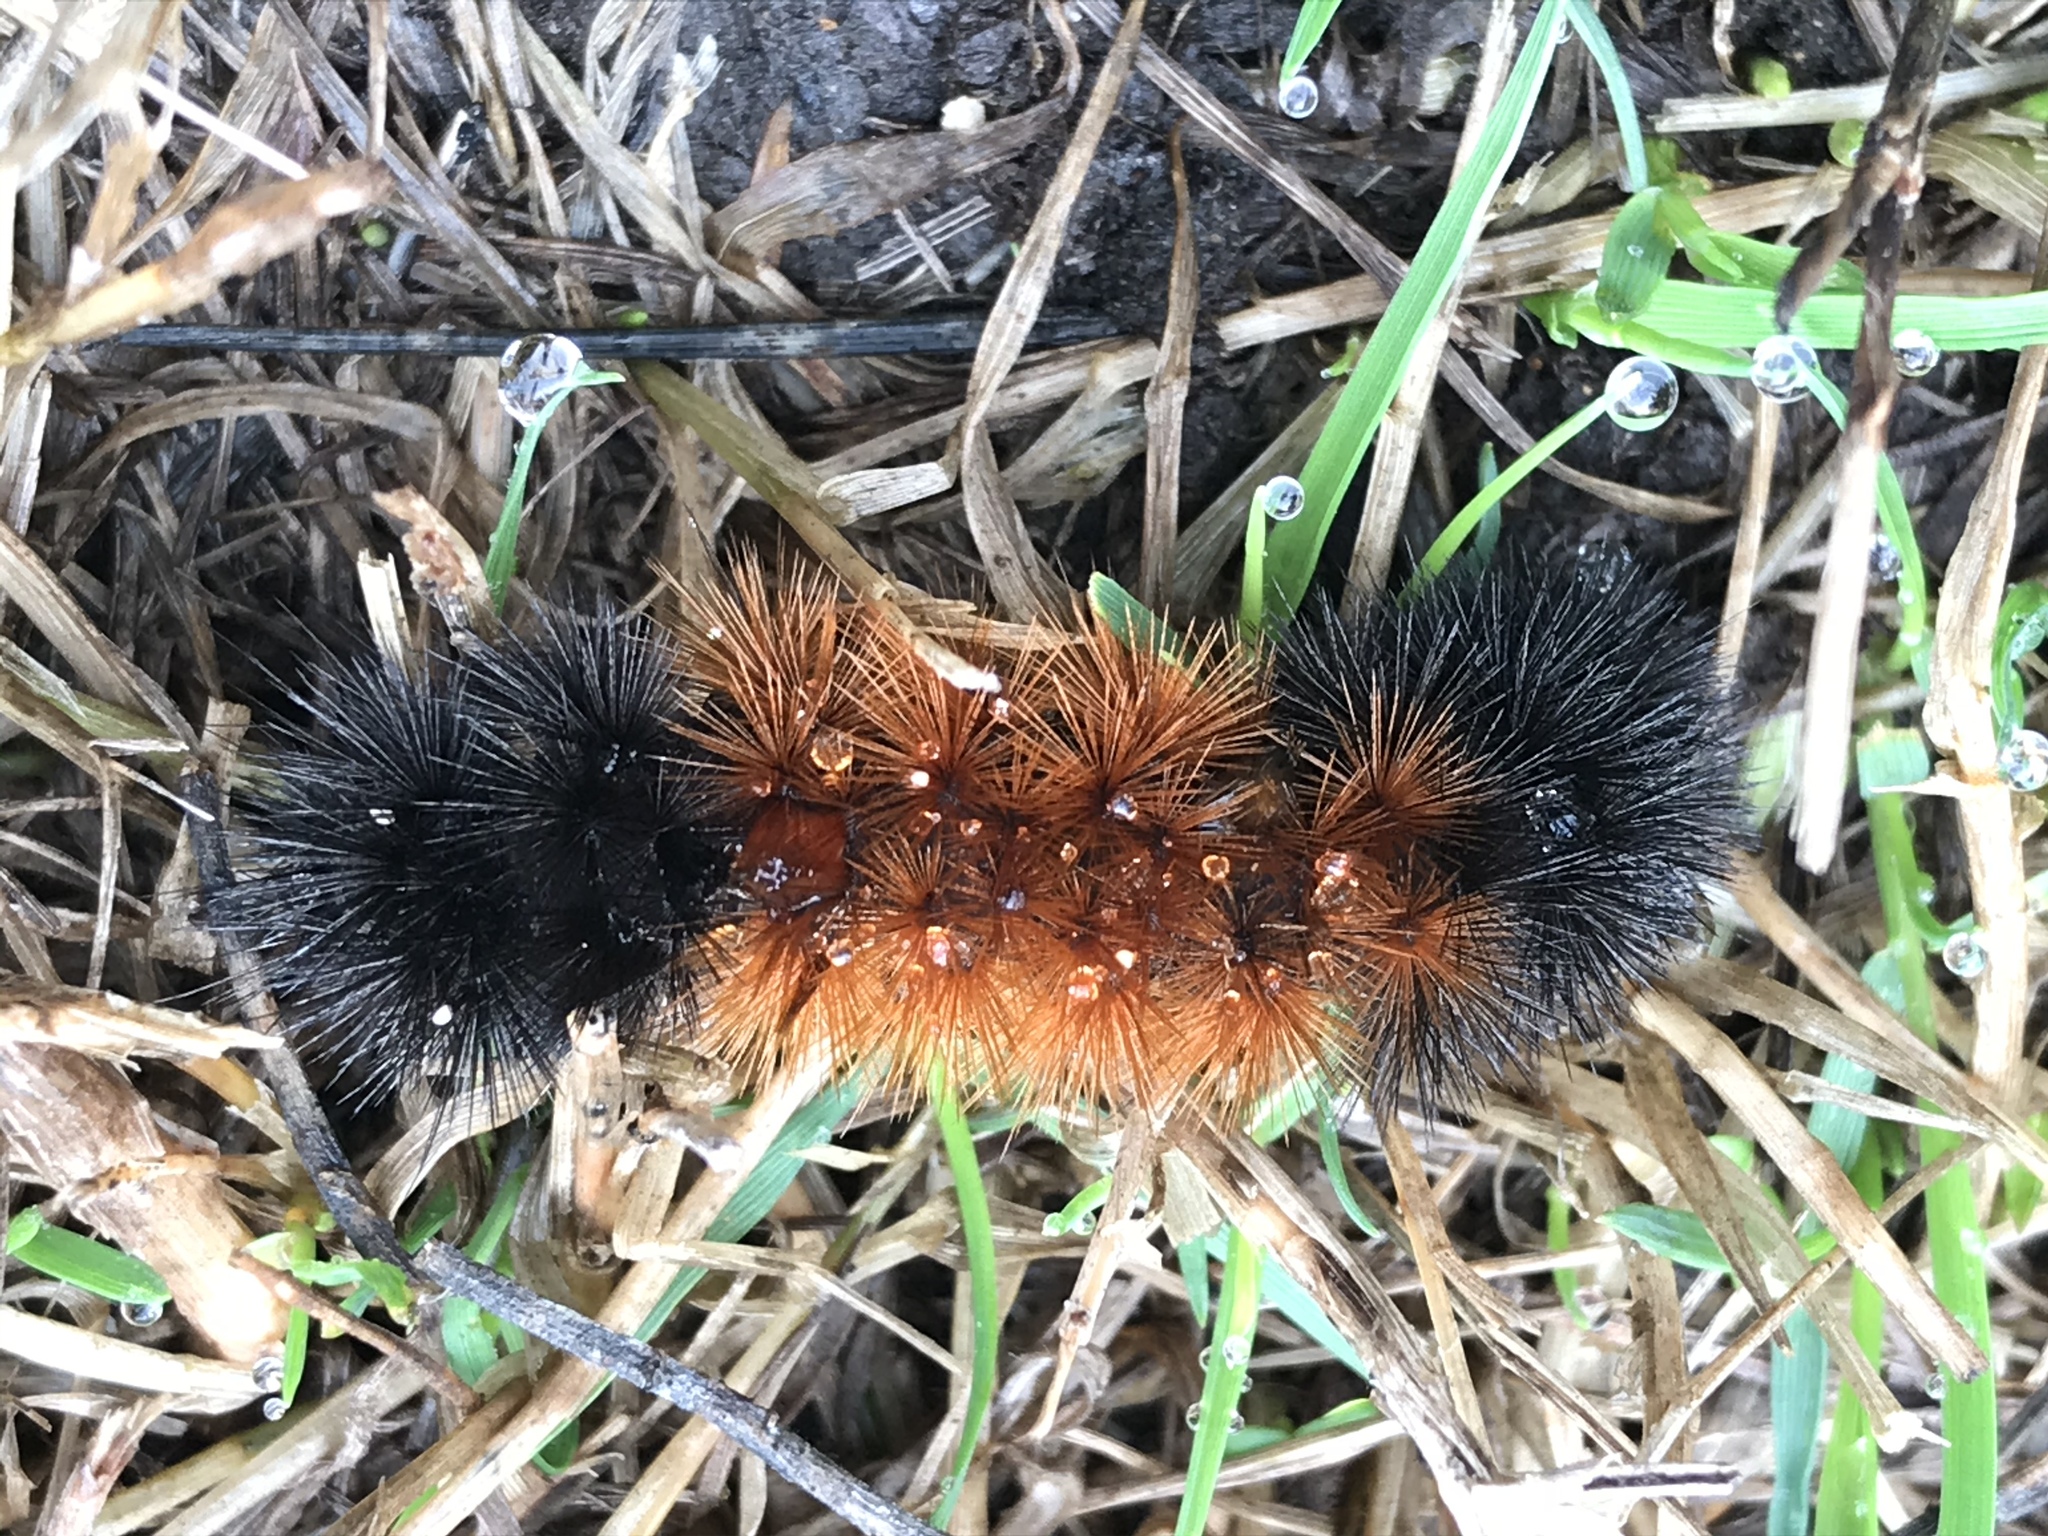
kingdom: Animalia
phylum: Arthropoda
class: Insecta
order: Lepidoptera
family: Erebidae
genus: Pyrrharctia
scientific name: Pyrrharctia isabella
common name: Isabella tiger moth
